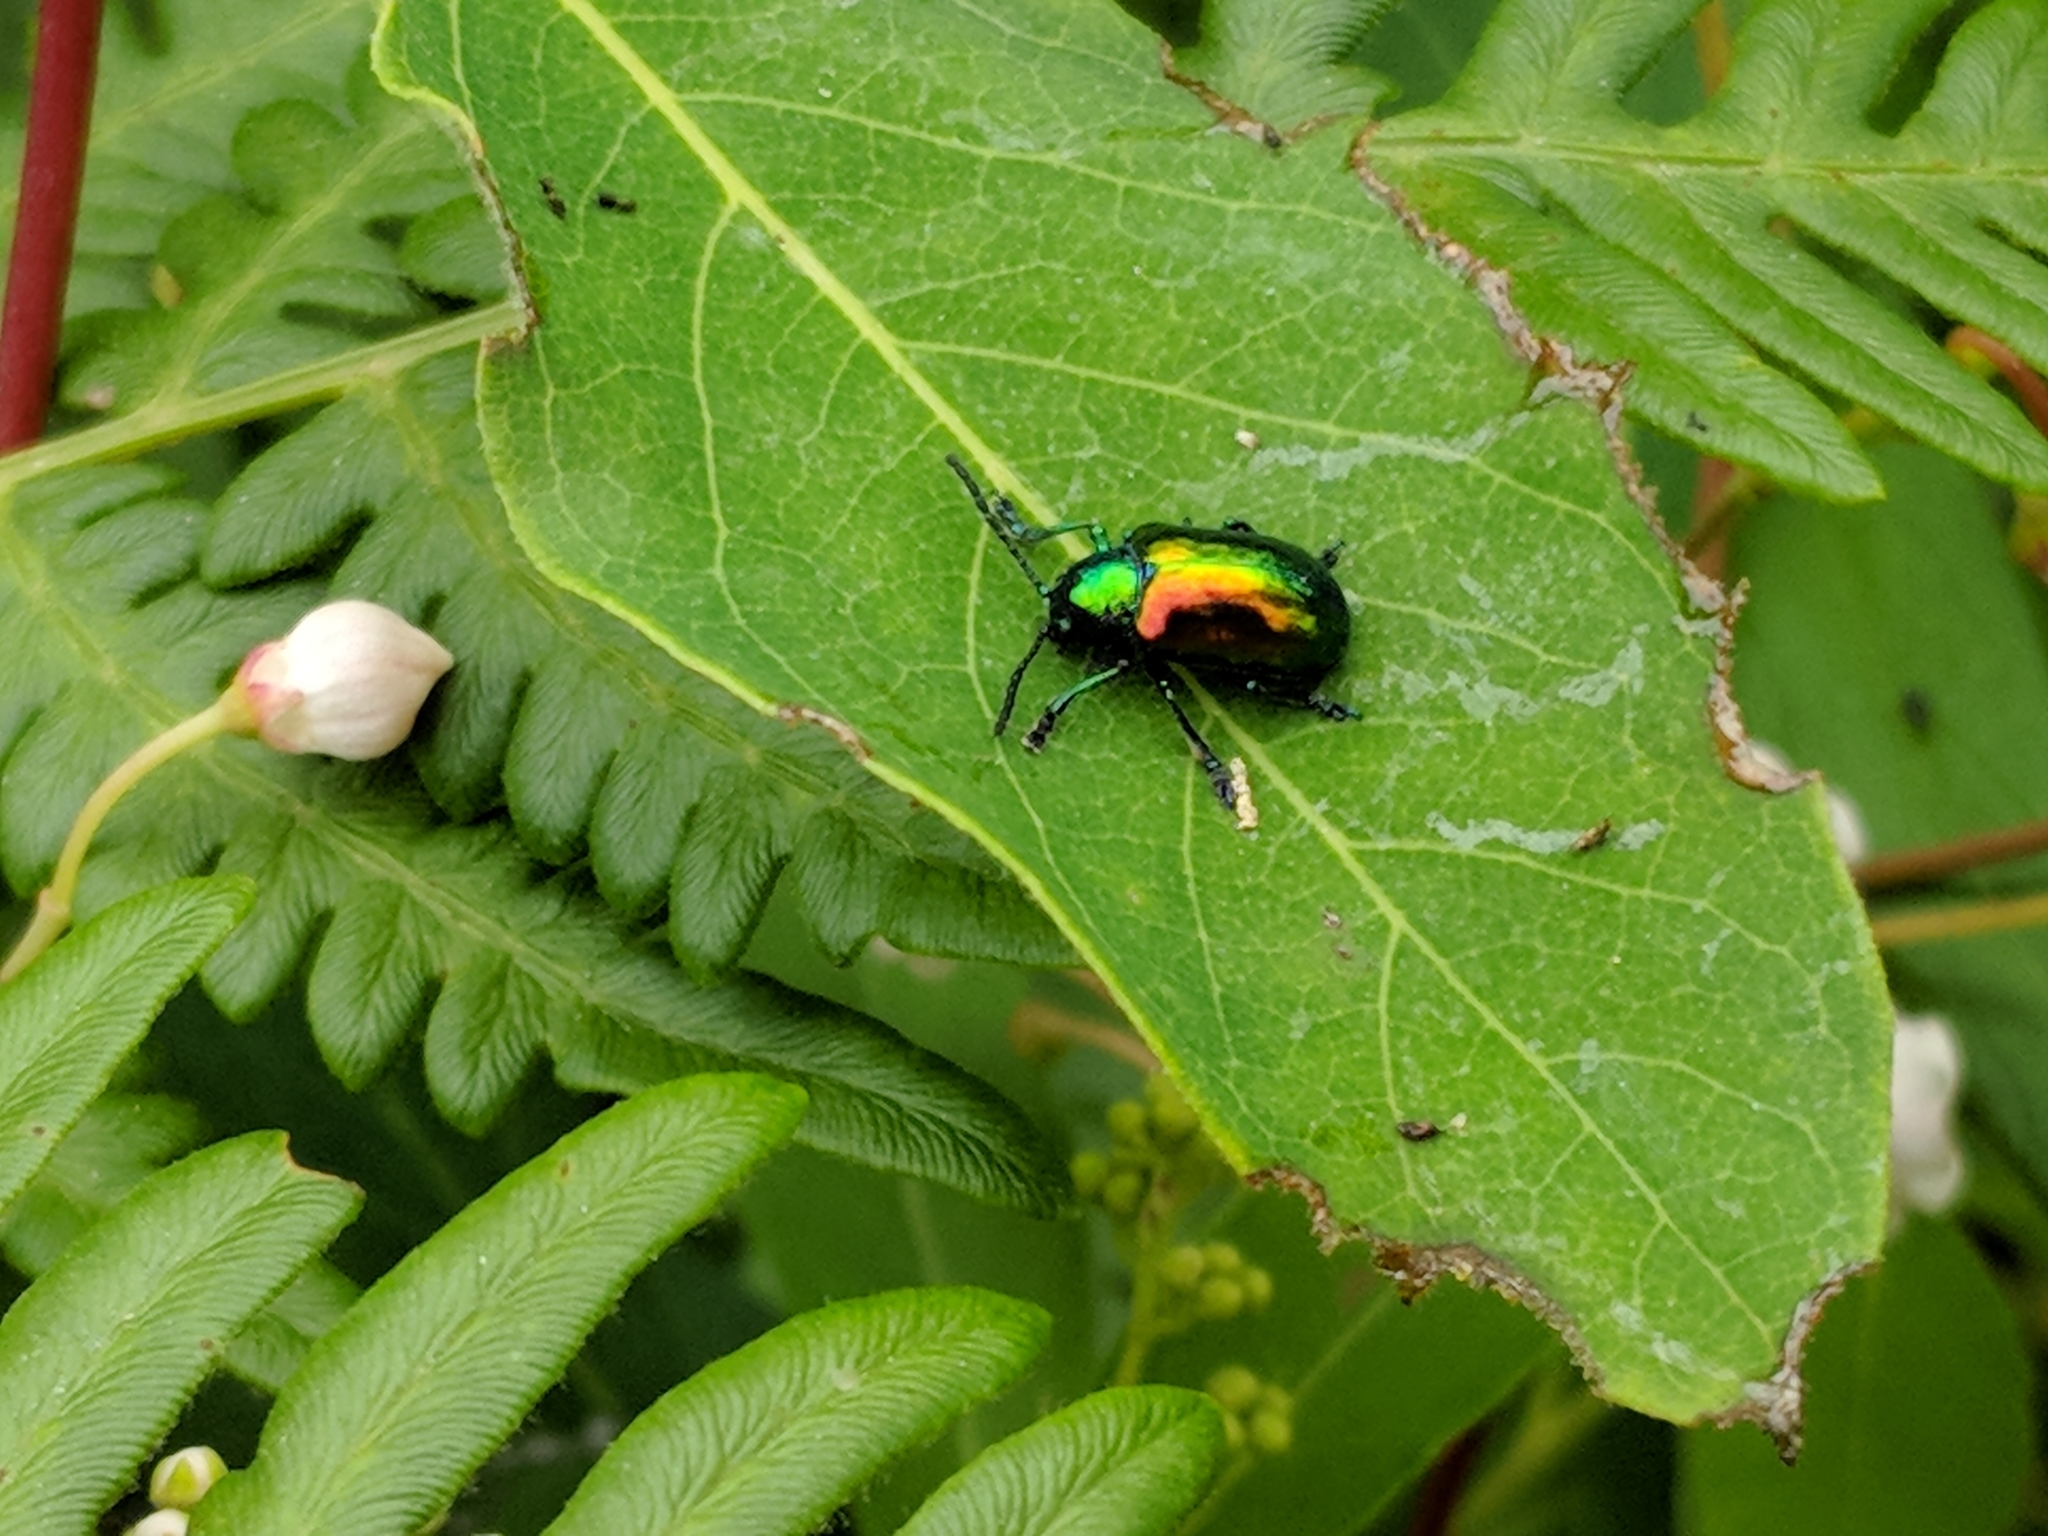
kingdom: Animalia
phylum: Arthropoda
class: Insecta
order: Coleoptera
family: Chrysomelidae
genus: Chrysochus
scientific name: Chrysochus auratus
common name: Dogbane leaf beetle
